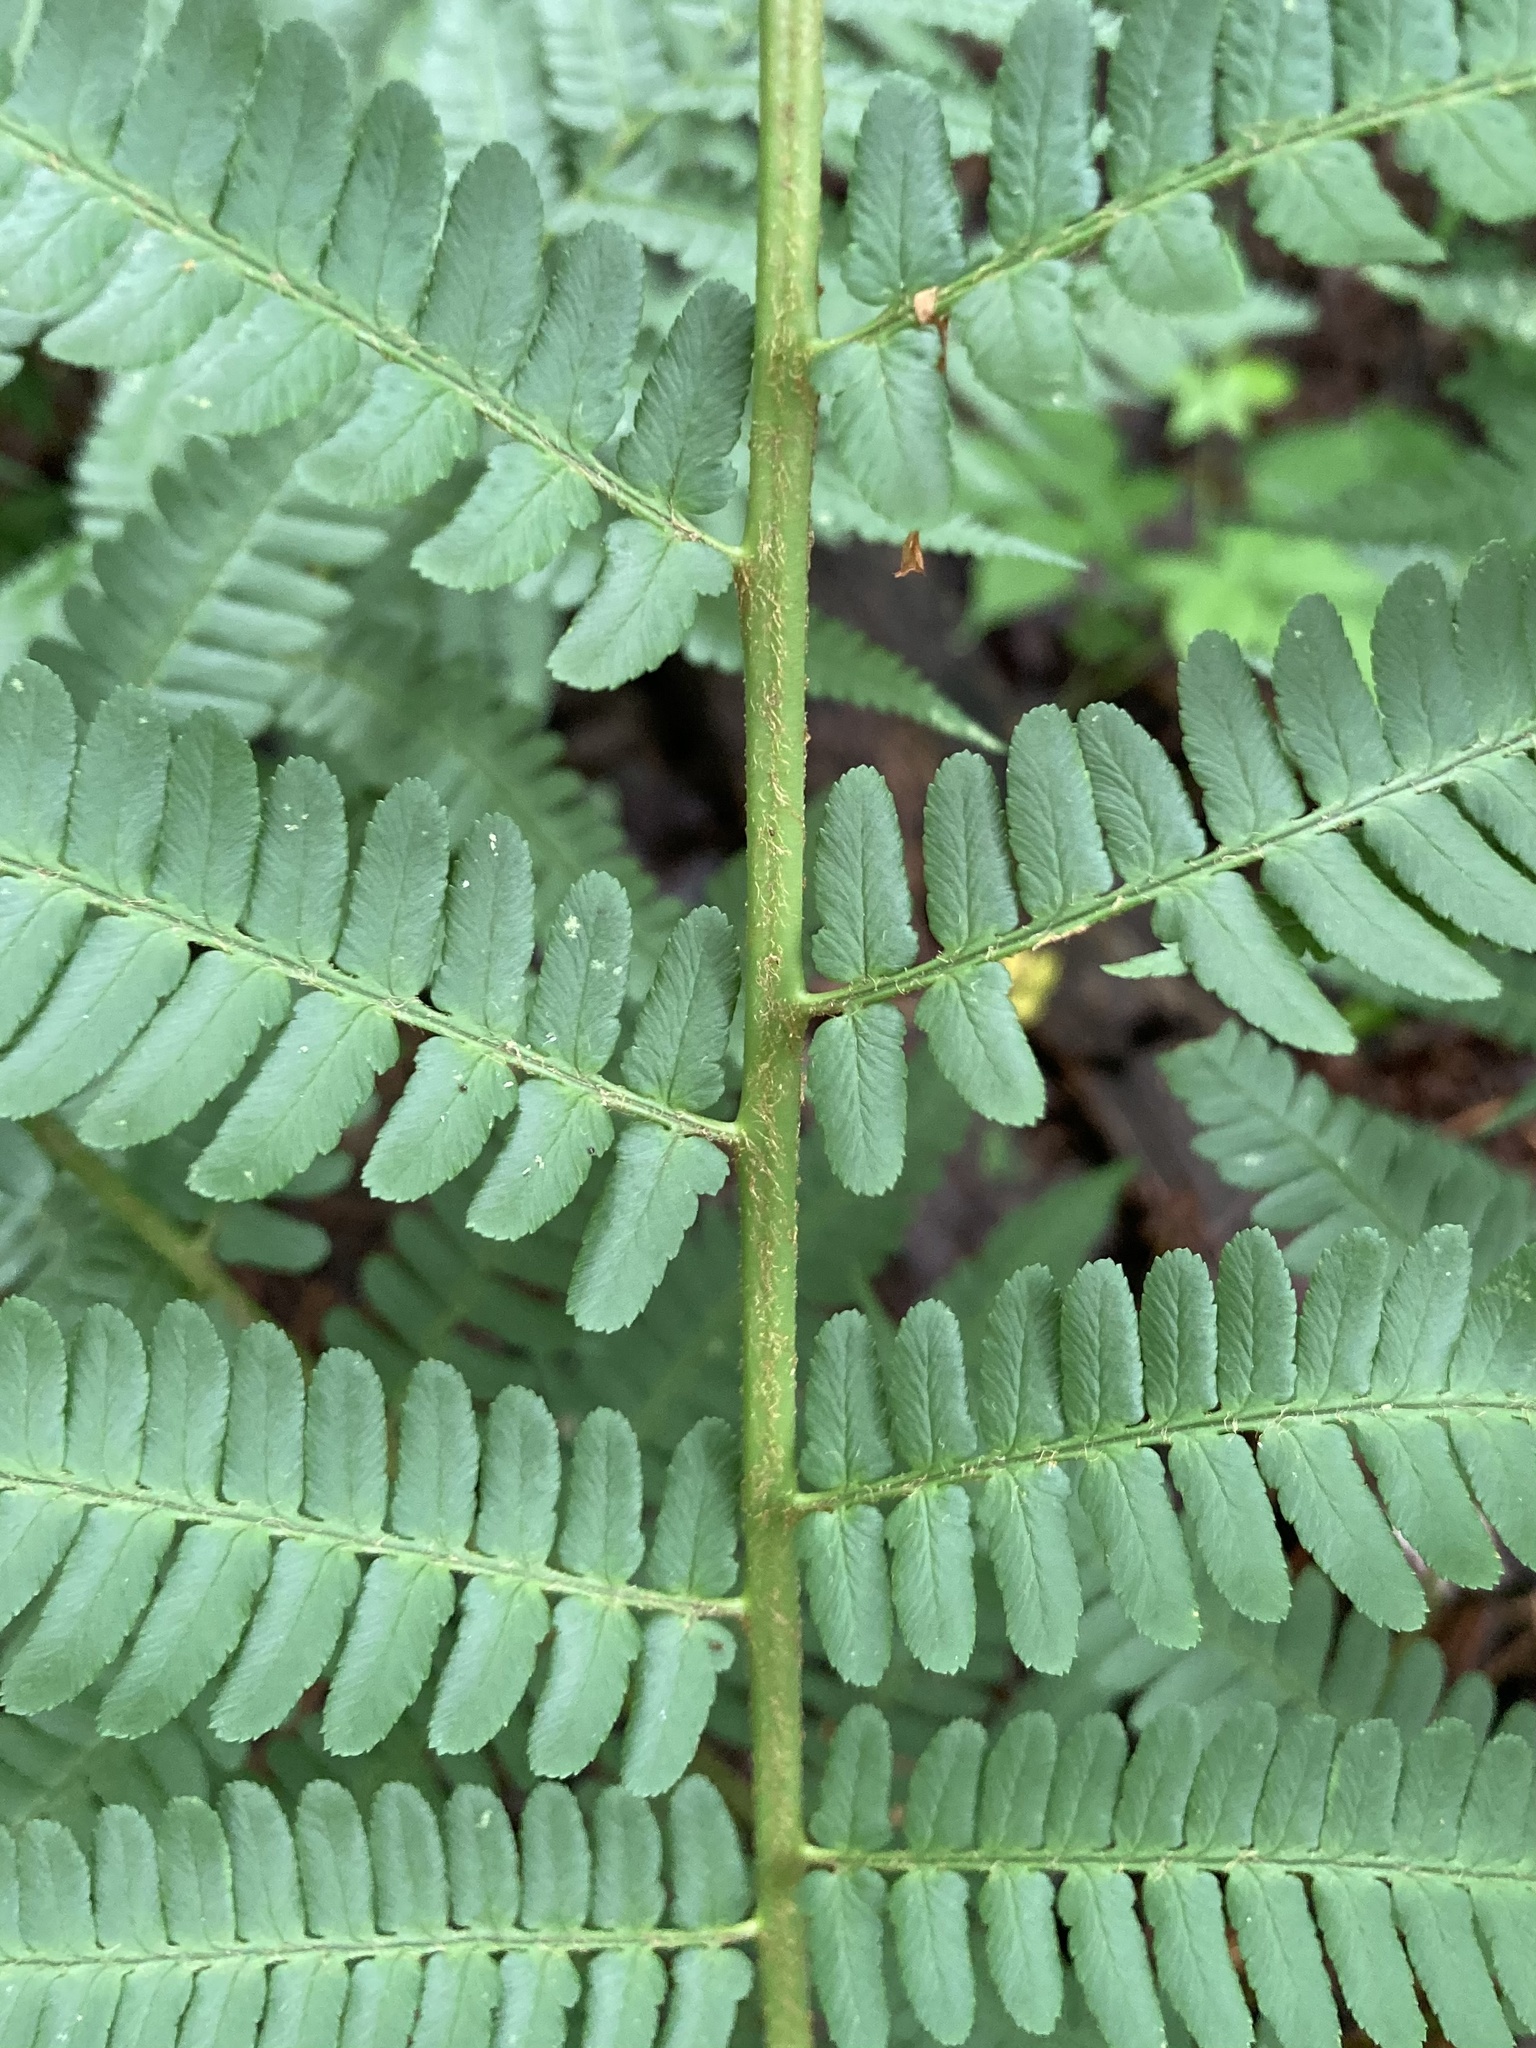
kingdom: Plantae
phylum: Tracheophyta
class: Polypodiopsida
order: Polypodiales
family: Dryopteridaceae
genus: Dryopteris
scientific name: Dryopteris filix-mas
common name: Male fern
